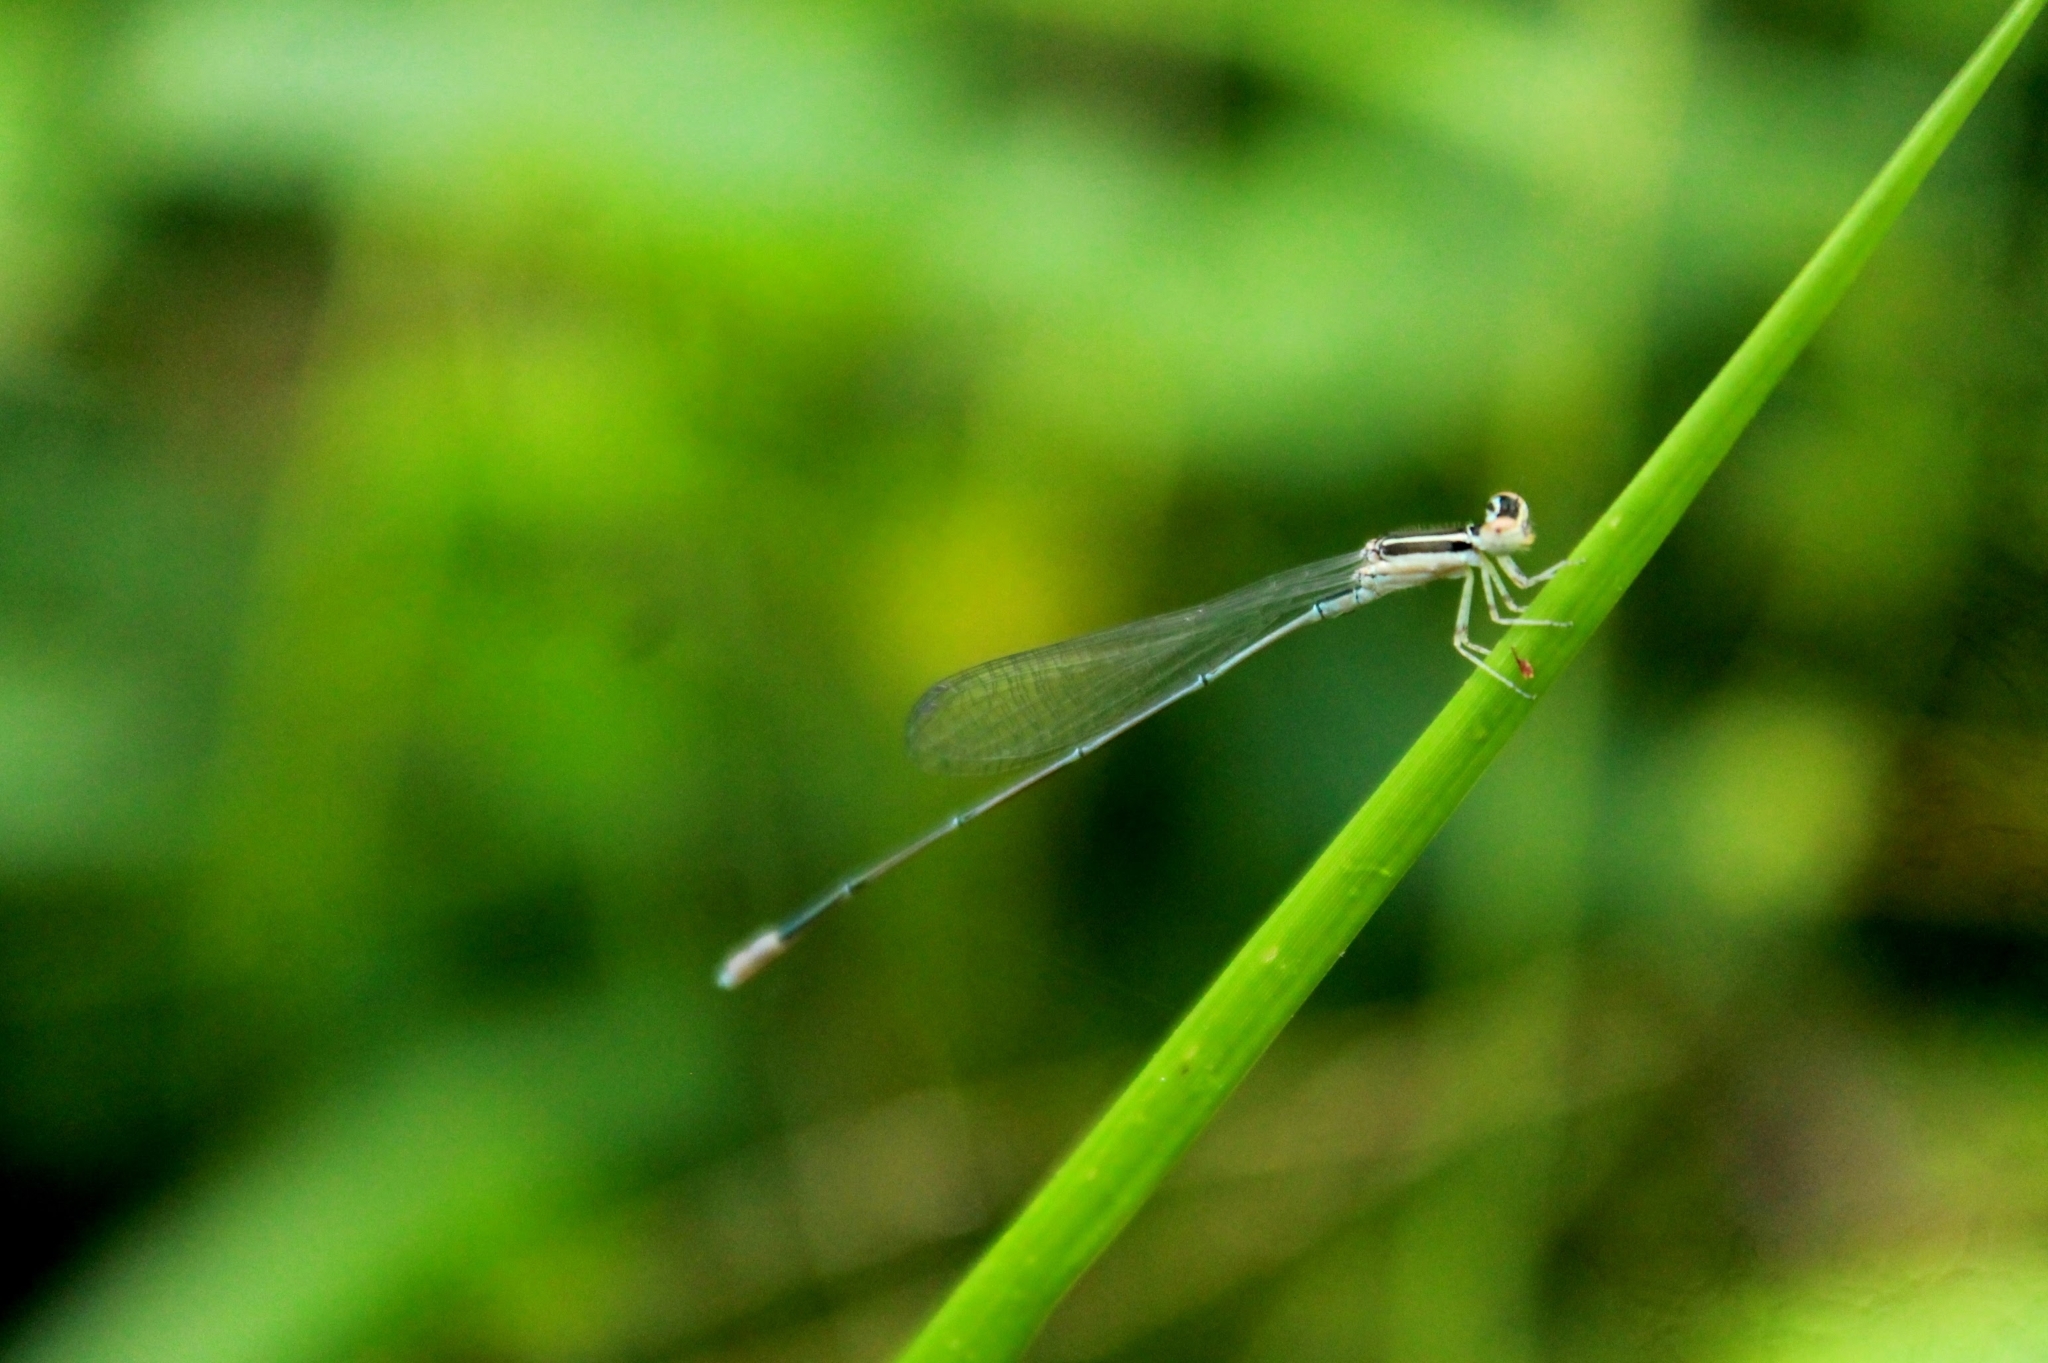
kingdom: Animalia
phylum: Arthropoda
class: Insecta
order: Odonata
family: Coenagrionidae
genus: Aciagrion
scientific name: Aciagrion occidentale
